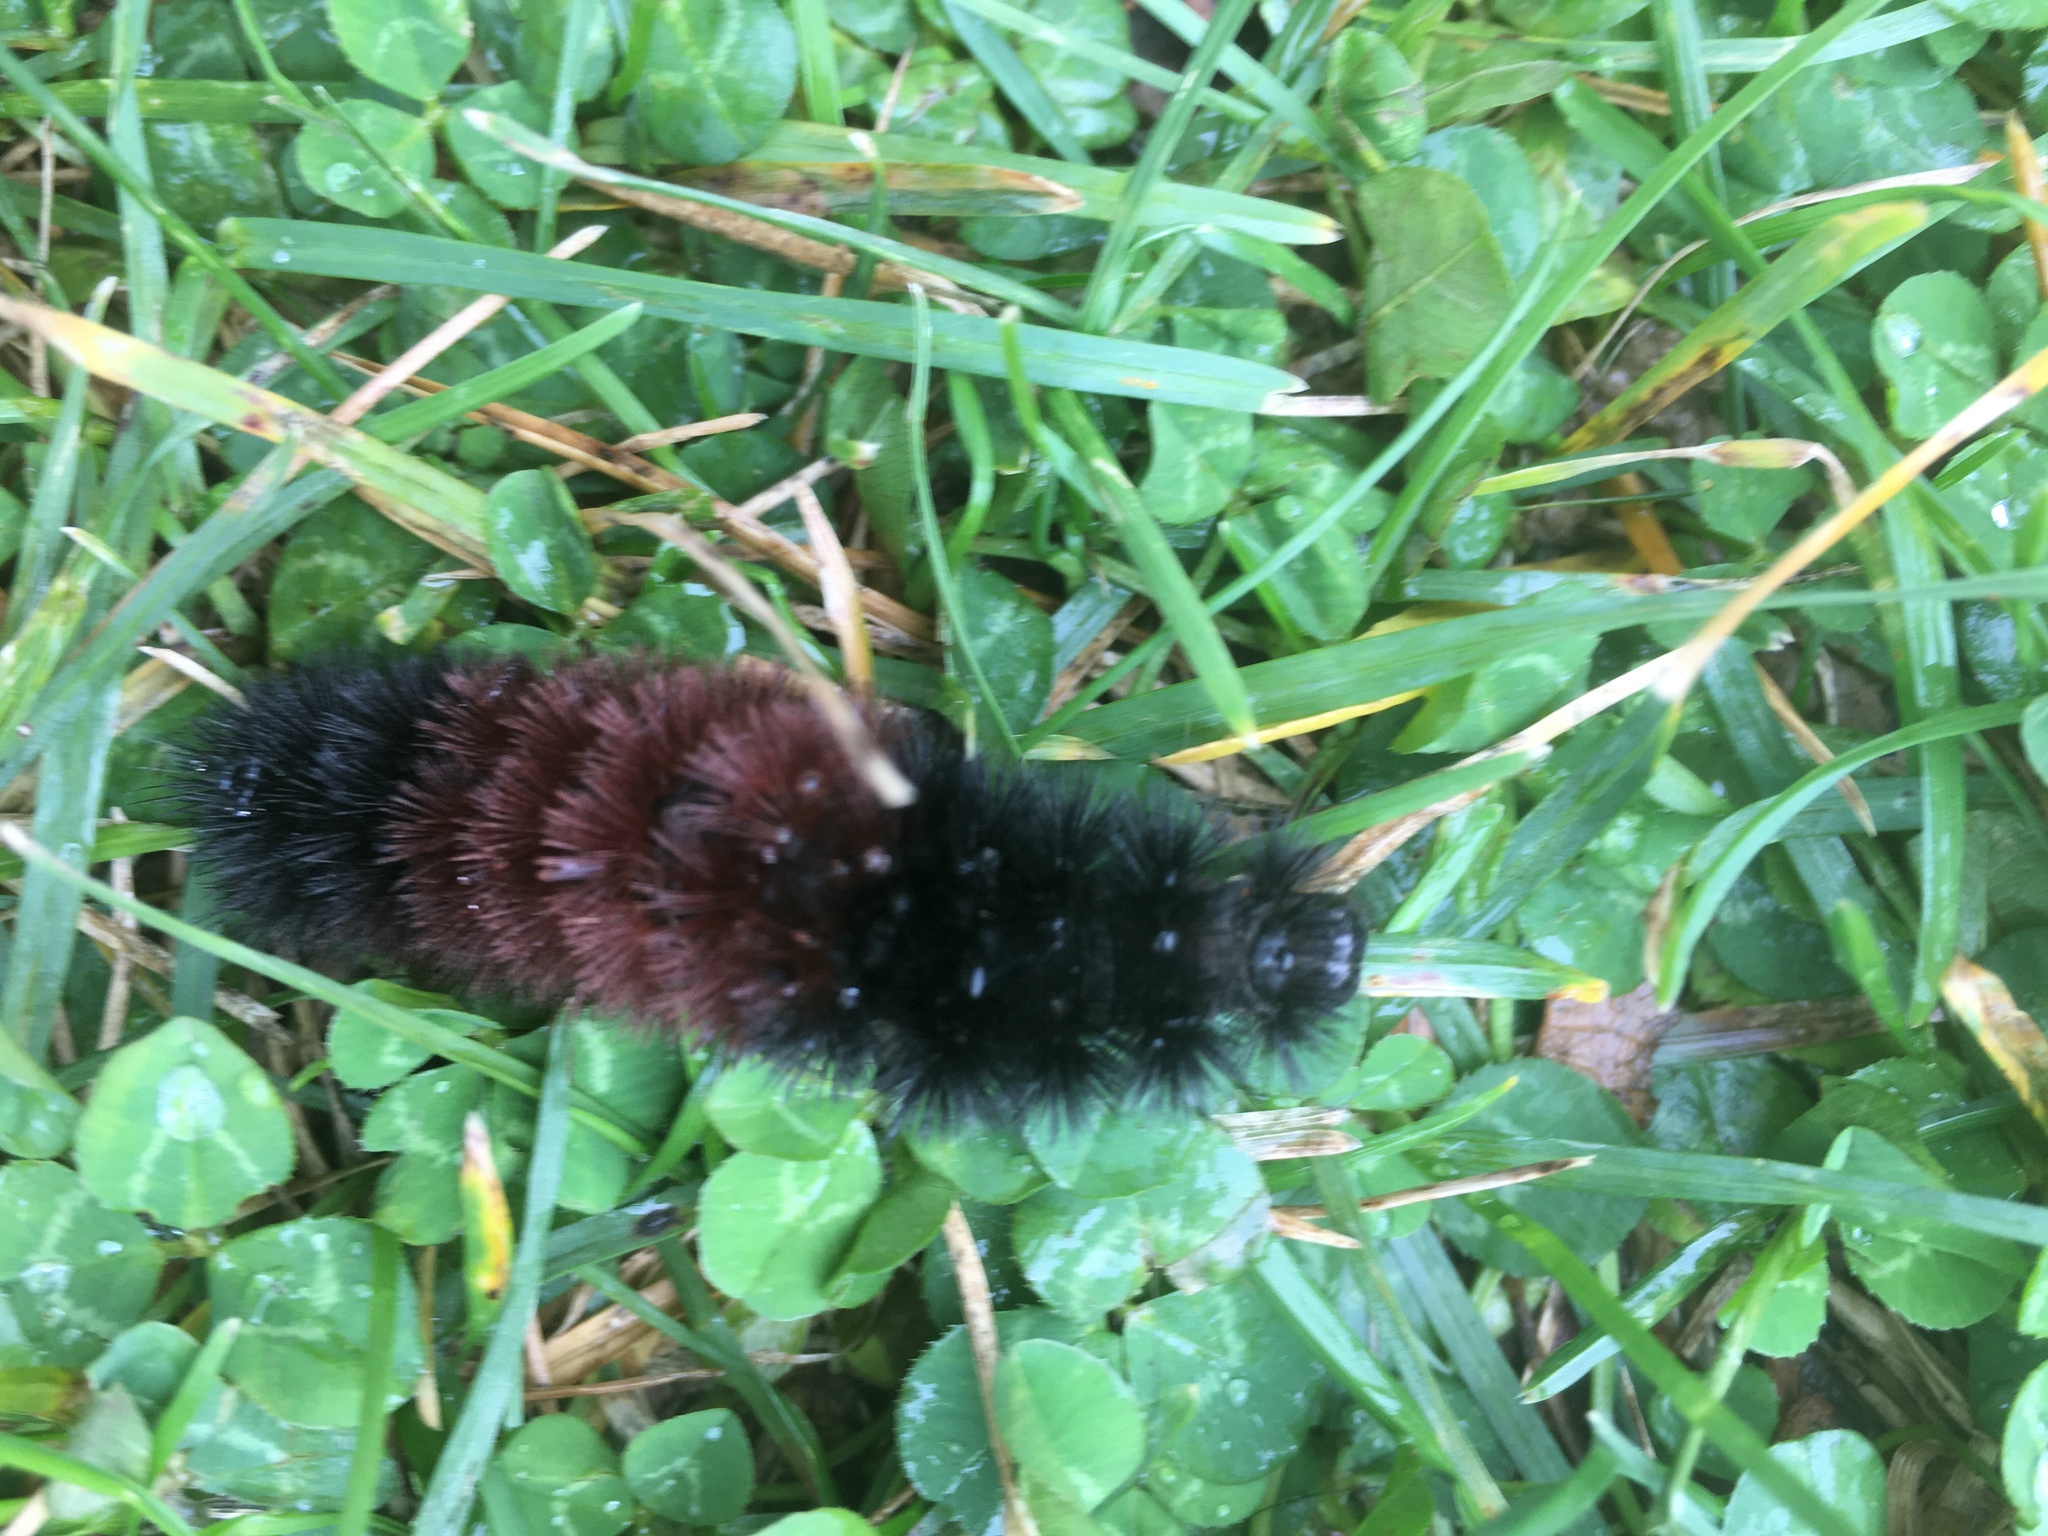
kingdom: Animalia
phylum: Arthropoda
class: Insecta
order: Lepidoptera
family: Erebidae
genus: Pyrrharctia
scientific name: Pyrrharctia isabella
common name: Isabella tiger moth
